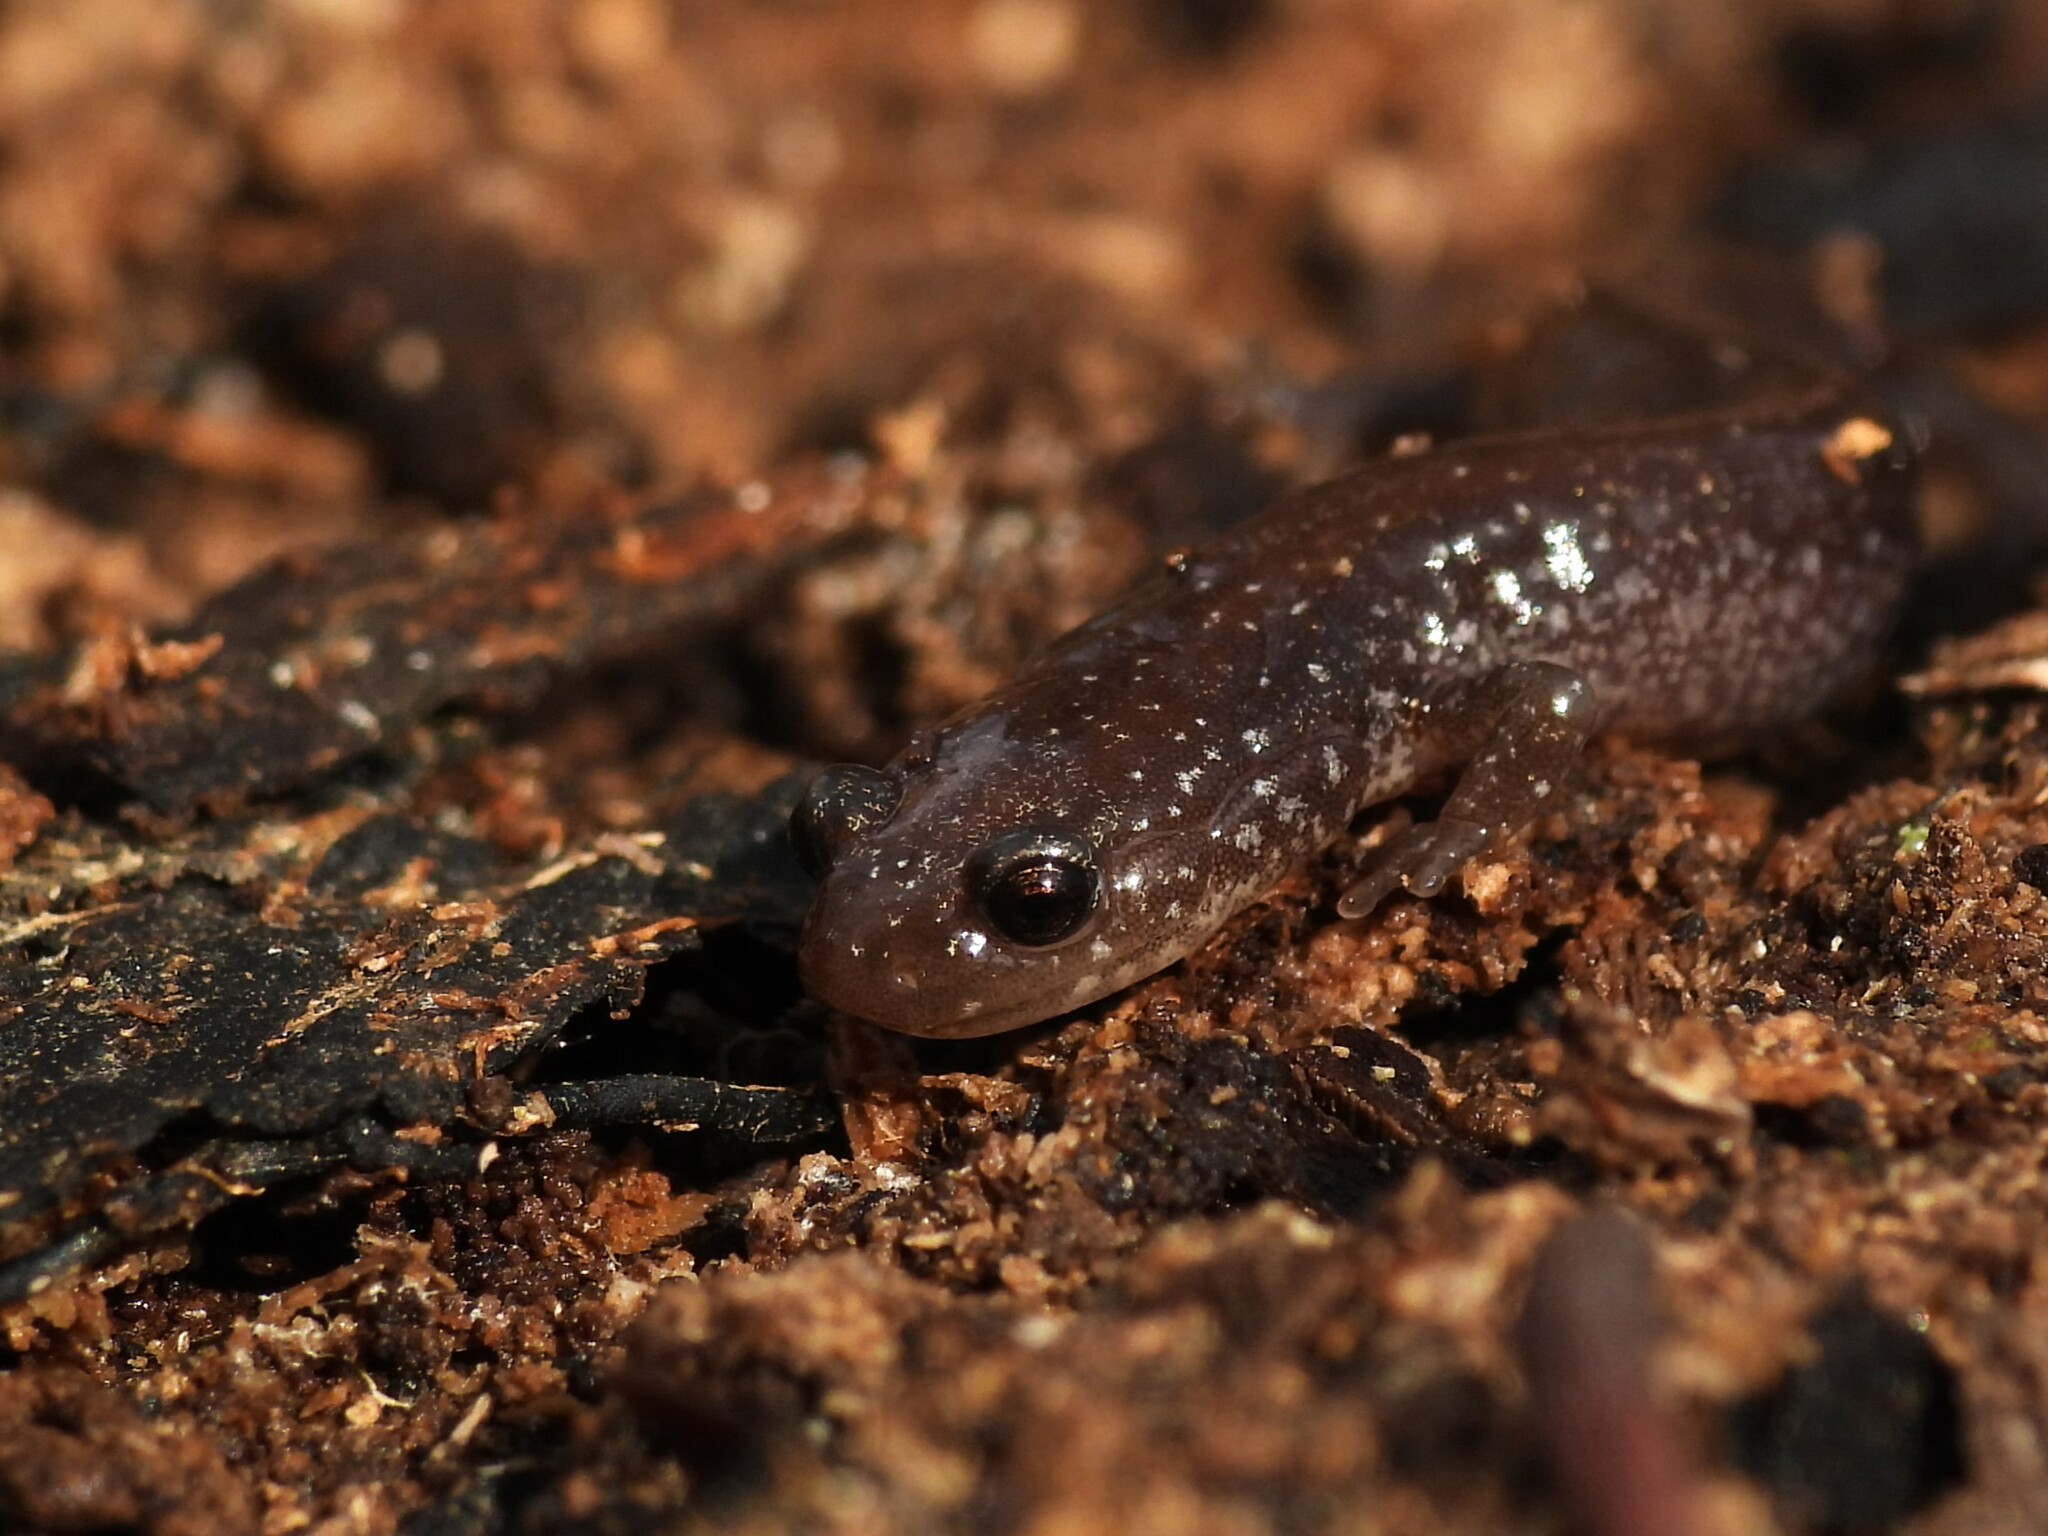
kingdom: Animalia
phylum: Chordata
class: Amphibia
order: Caudata
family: Plethodontidae
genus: Plethodon
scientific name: Plethodon cinereus
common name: Redback salamander
